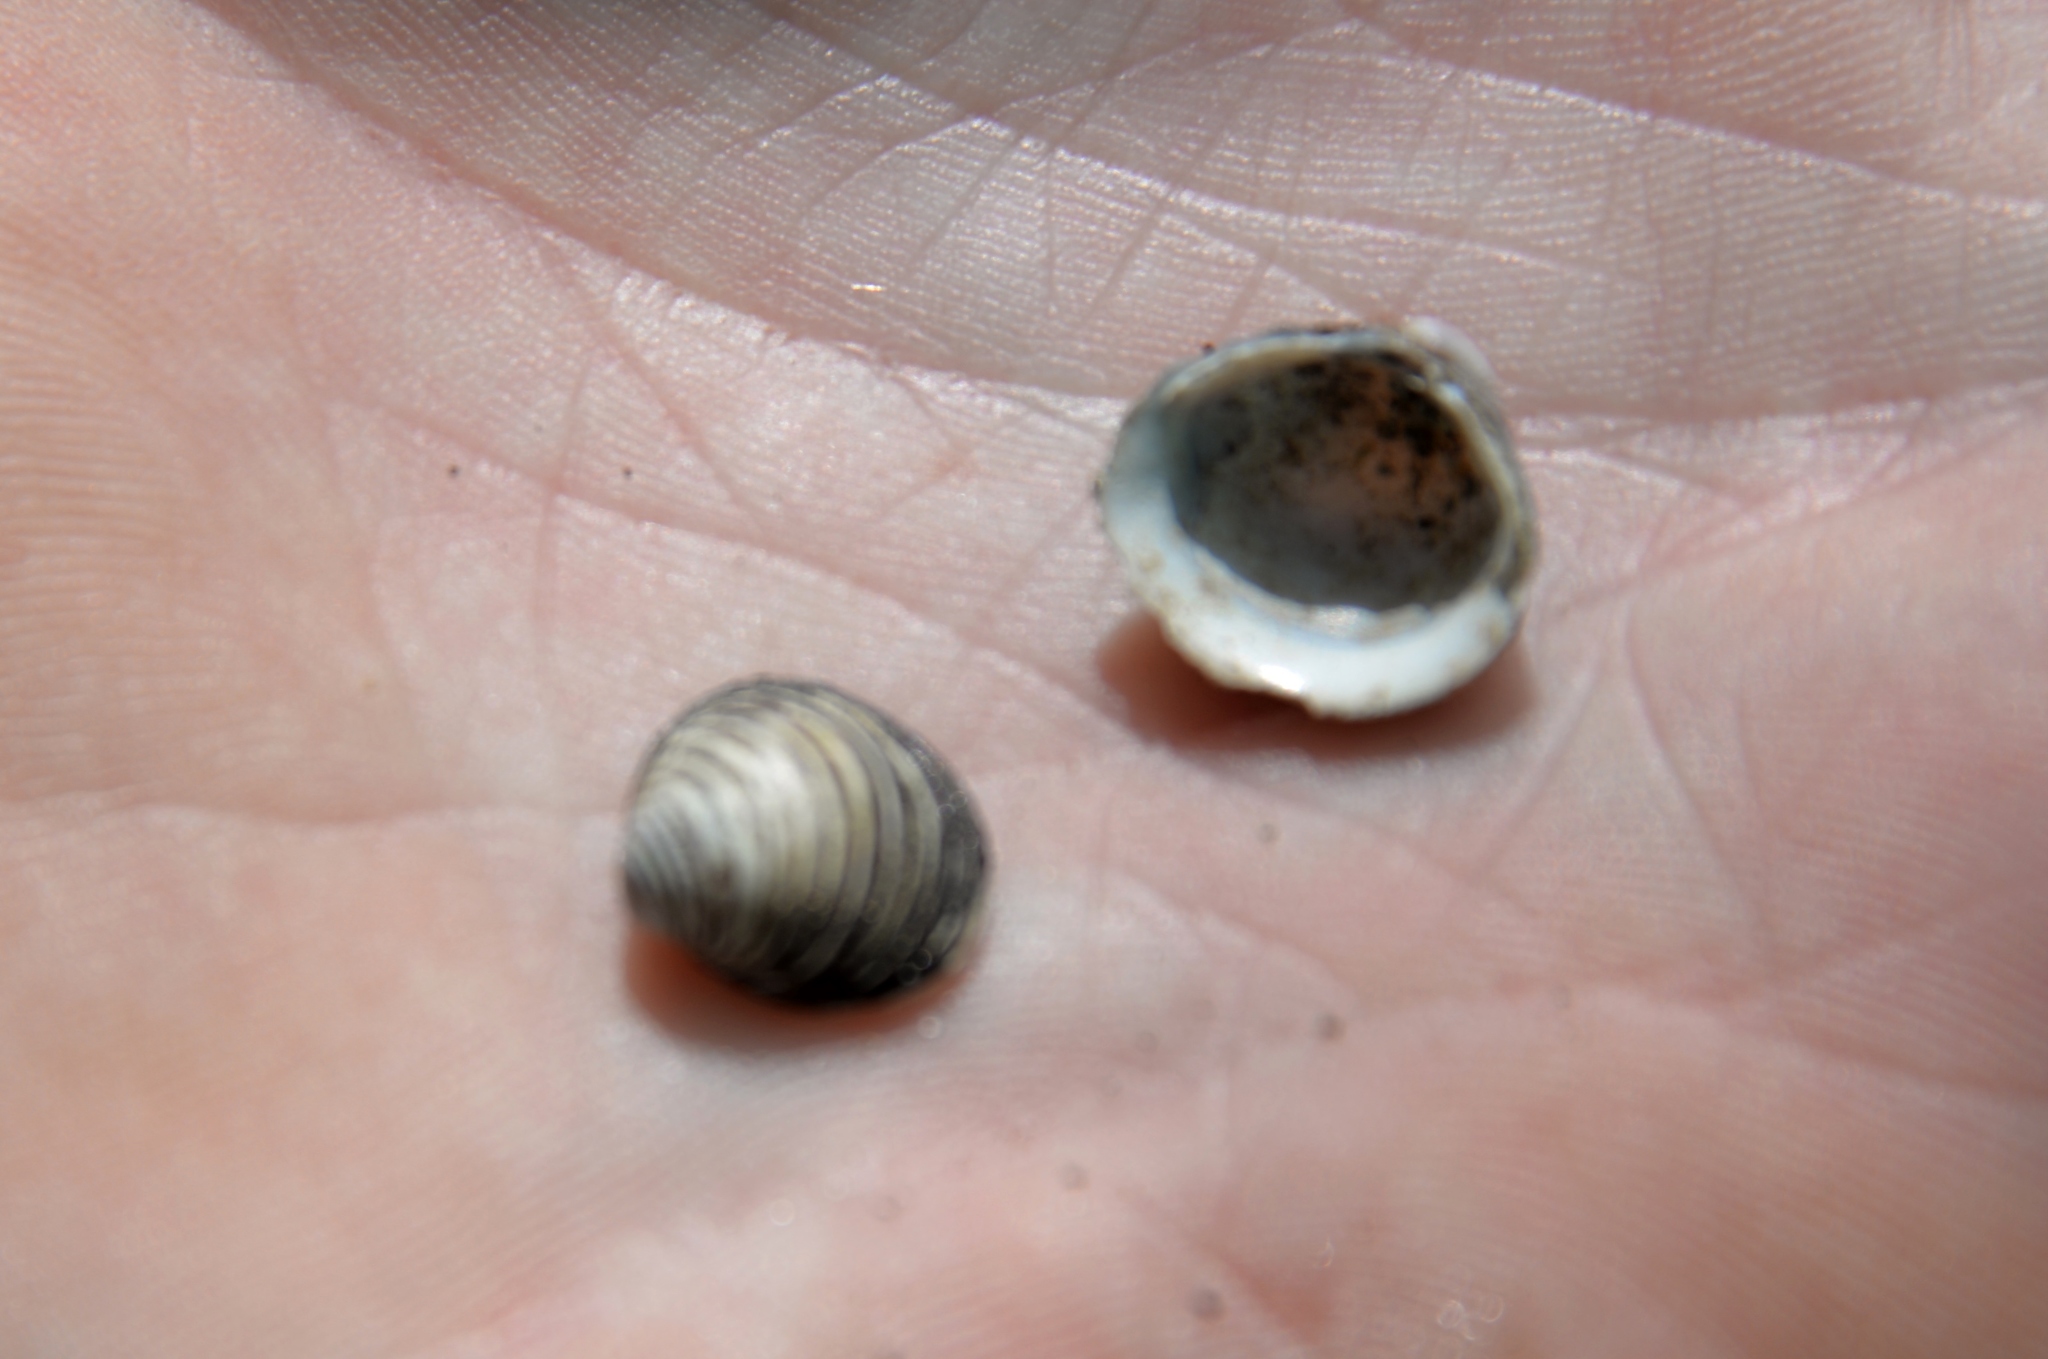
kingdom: Animalia
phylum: Mollusca
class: Bivalvia
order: Venerida
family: Cyrenidae
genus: Corbicula
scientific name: Corbicula fluminea
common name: Asian clam
